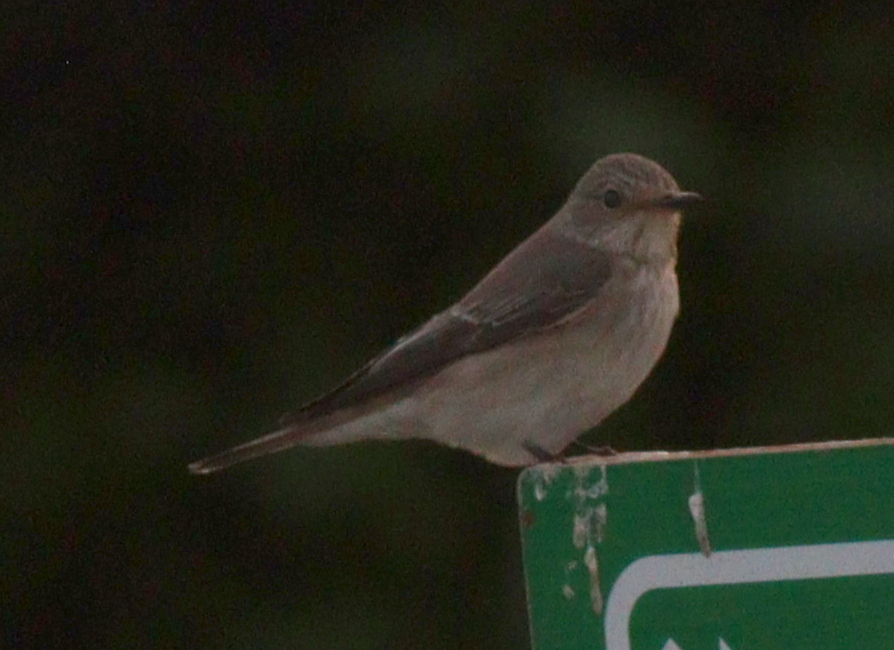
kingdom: Animalia
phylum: Chordata
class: Aves
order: Passeriformes
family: Muscicapidae
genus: Muscicapa
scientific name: Muscicapa striata
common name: Spotted flycatcher
